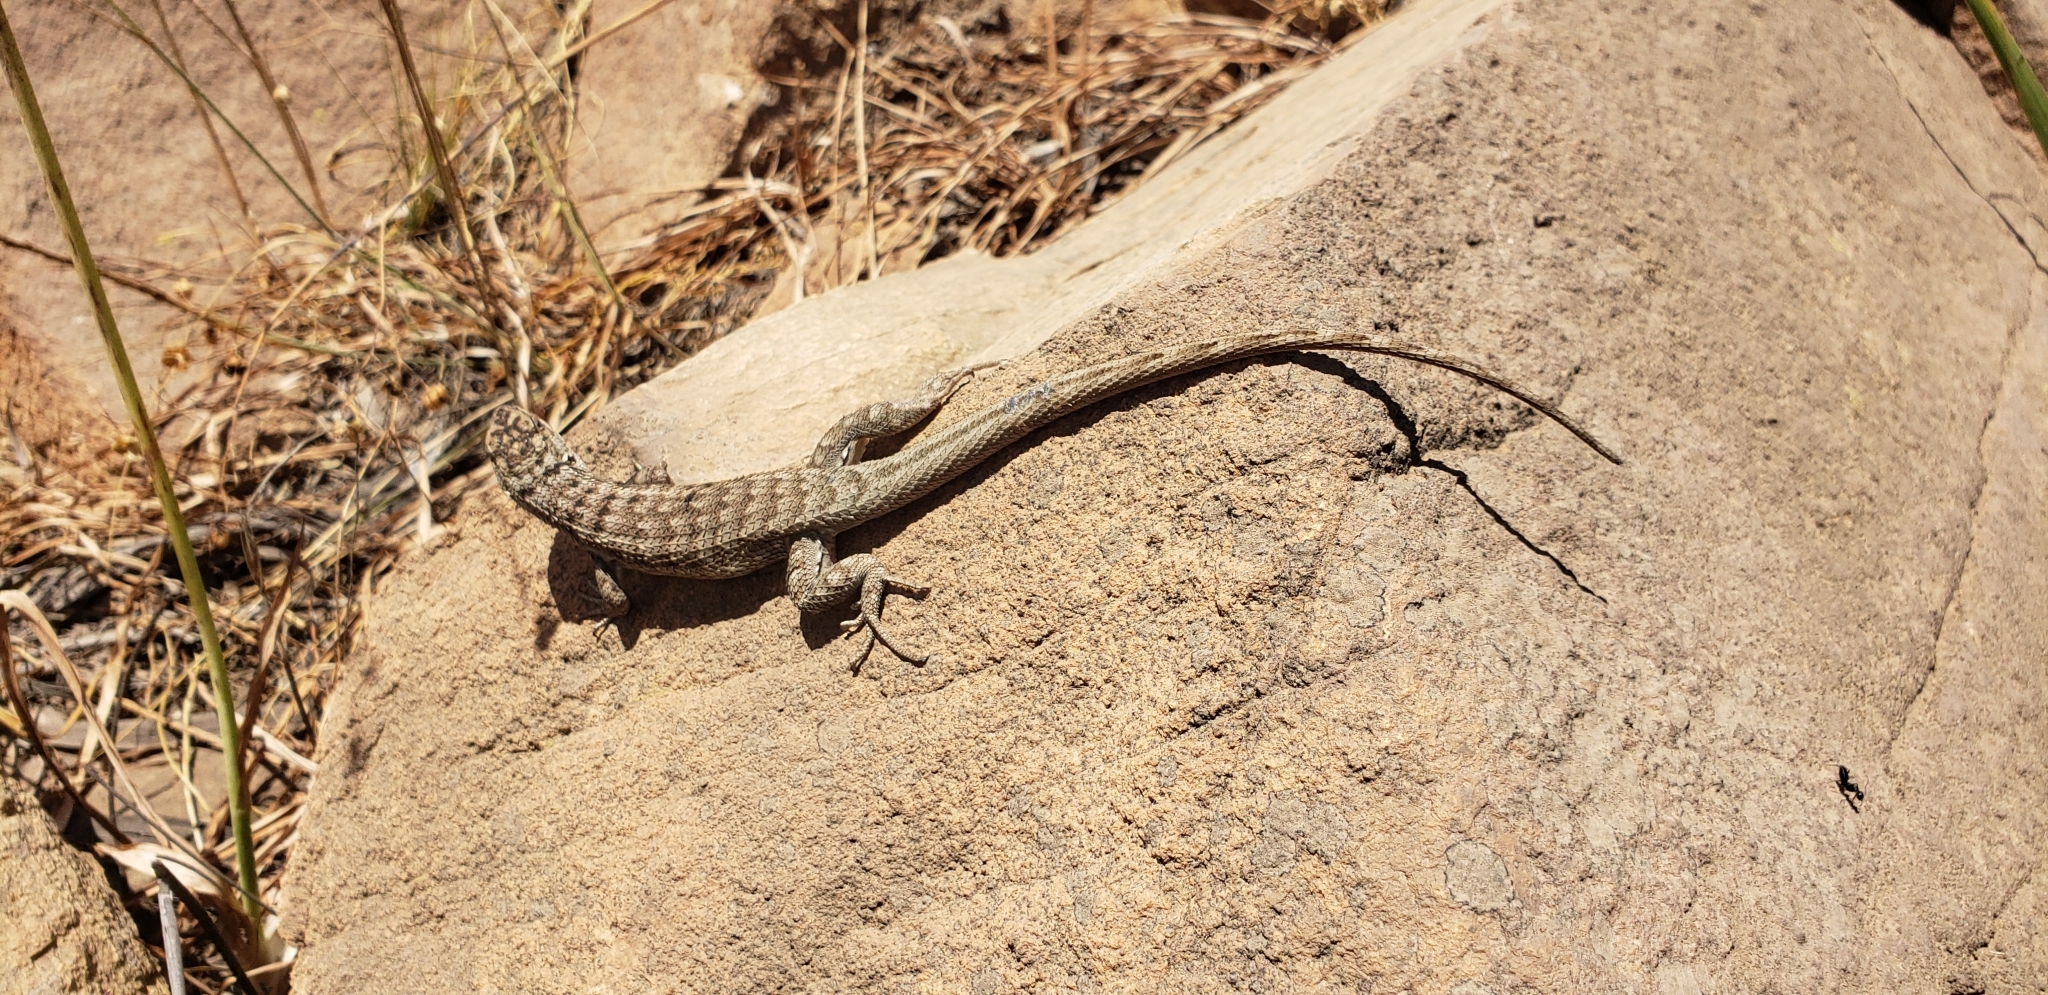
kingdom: Animalia
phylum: Chordata
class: Squamata
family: Liolaemidae
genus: Liolaemus
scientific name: Liolaemus nitidus
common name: Shining tree iguana
